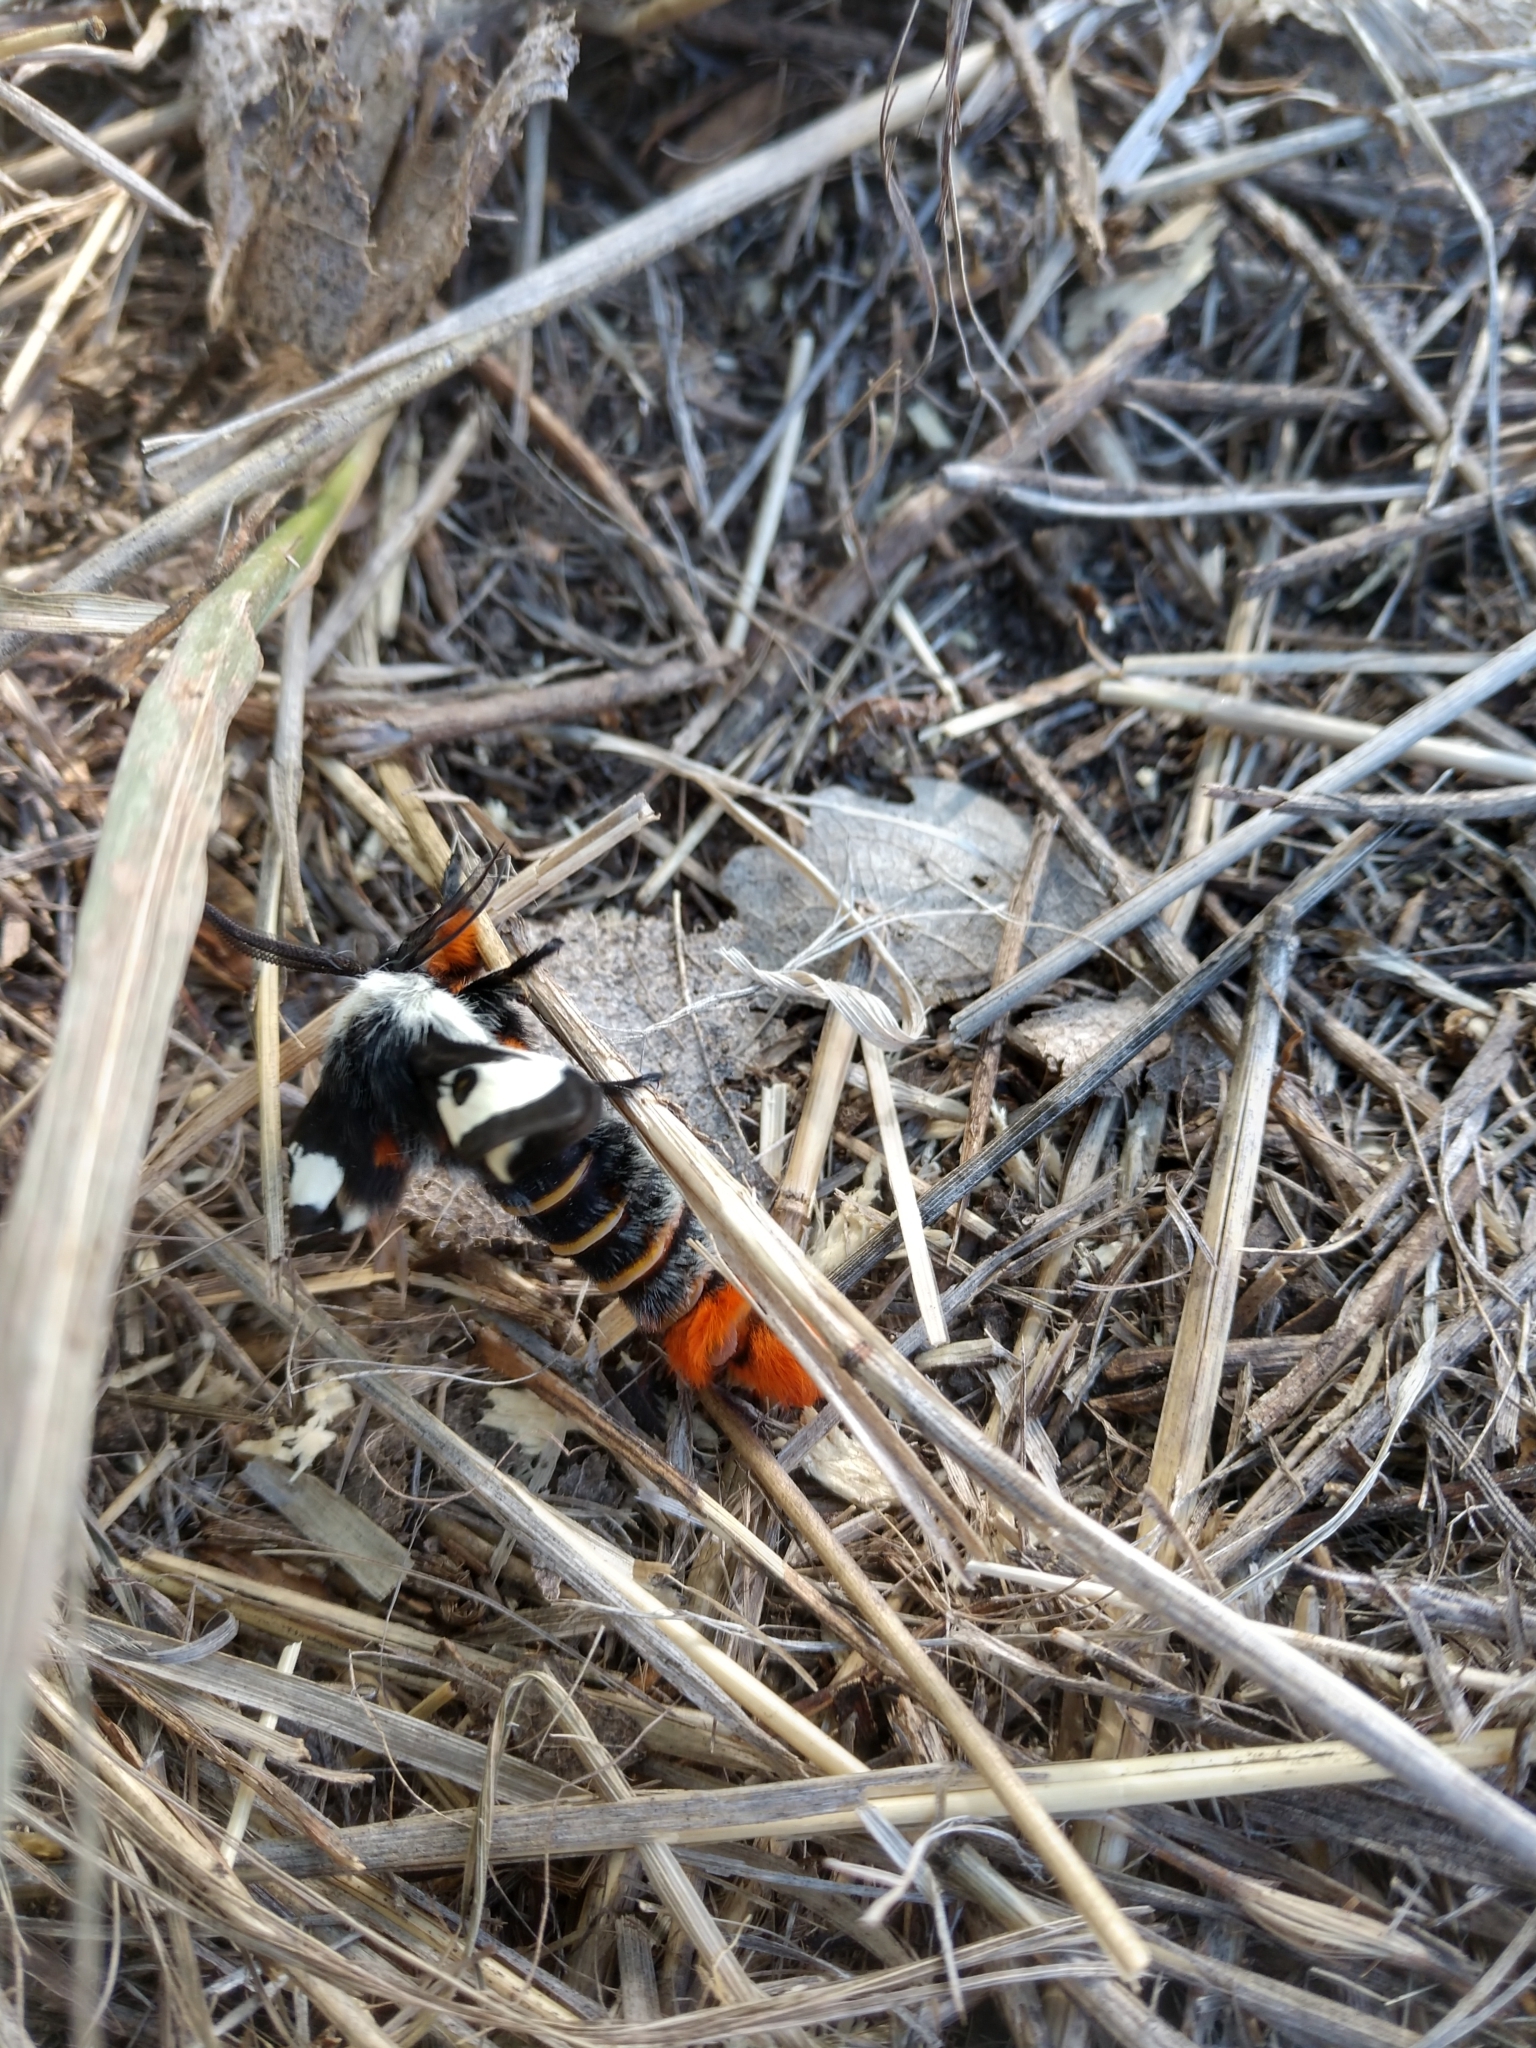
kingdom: Animalia
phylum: Arthropoda
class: Insecta
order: Lepidoptera
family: Saturniidae
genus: Hemileuca
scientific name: Hemileuca nevadensis
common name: Nevada buckmoth
